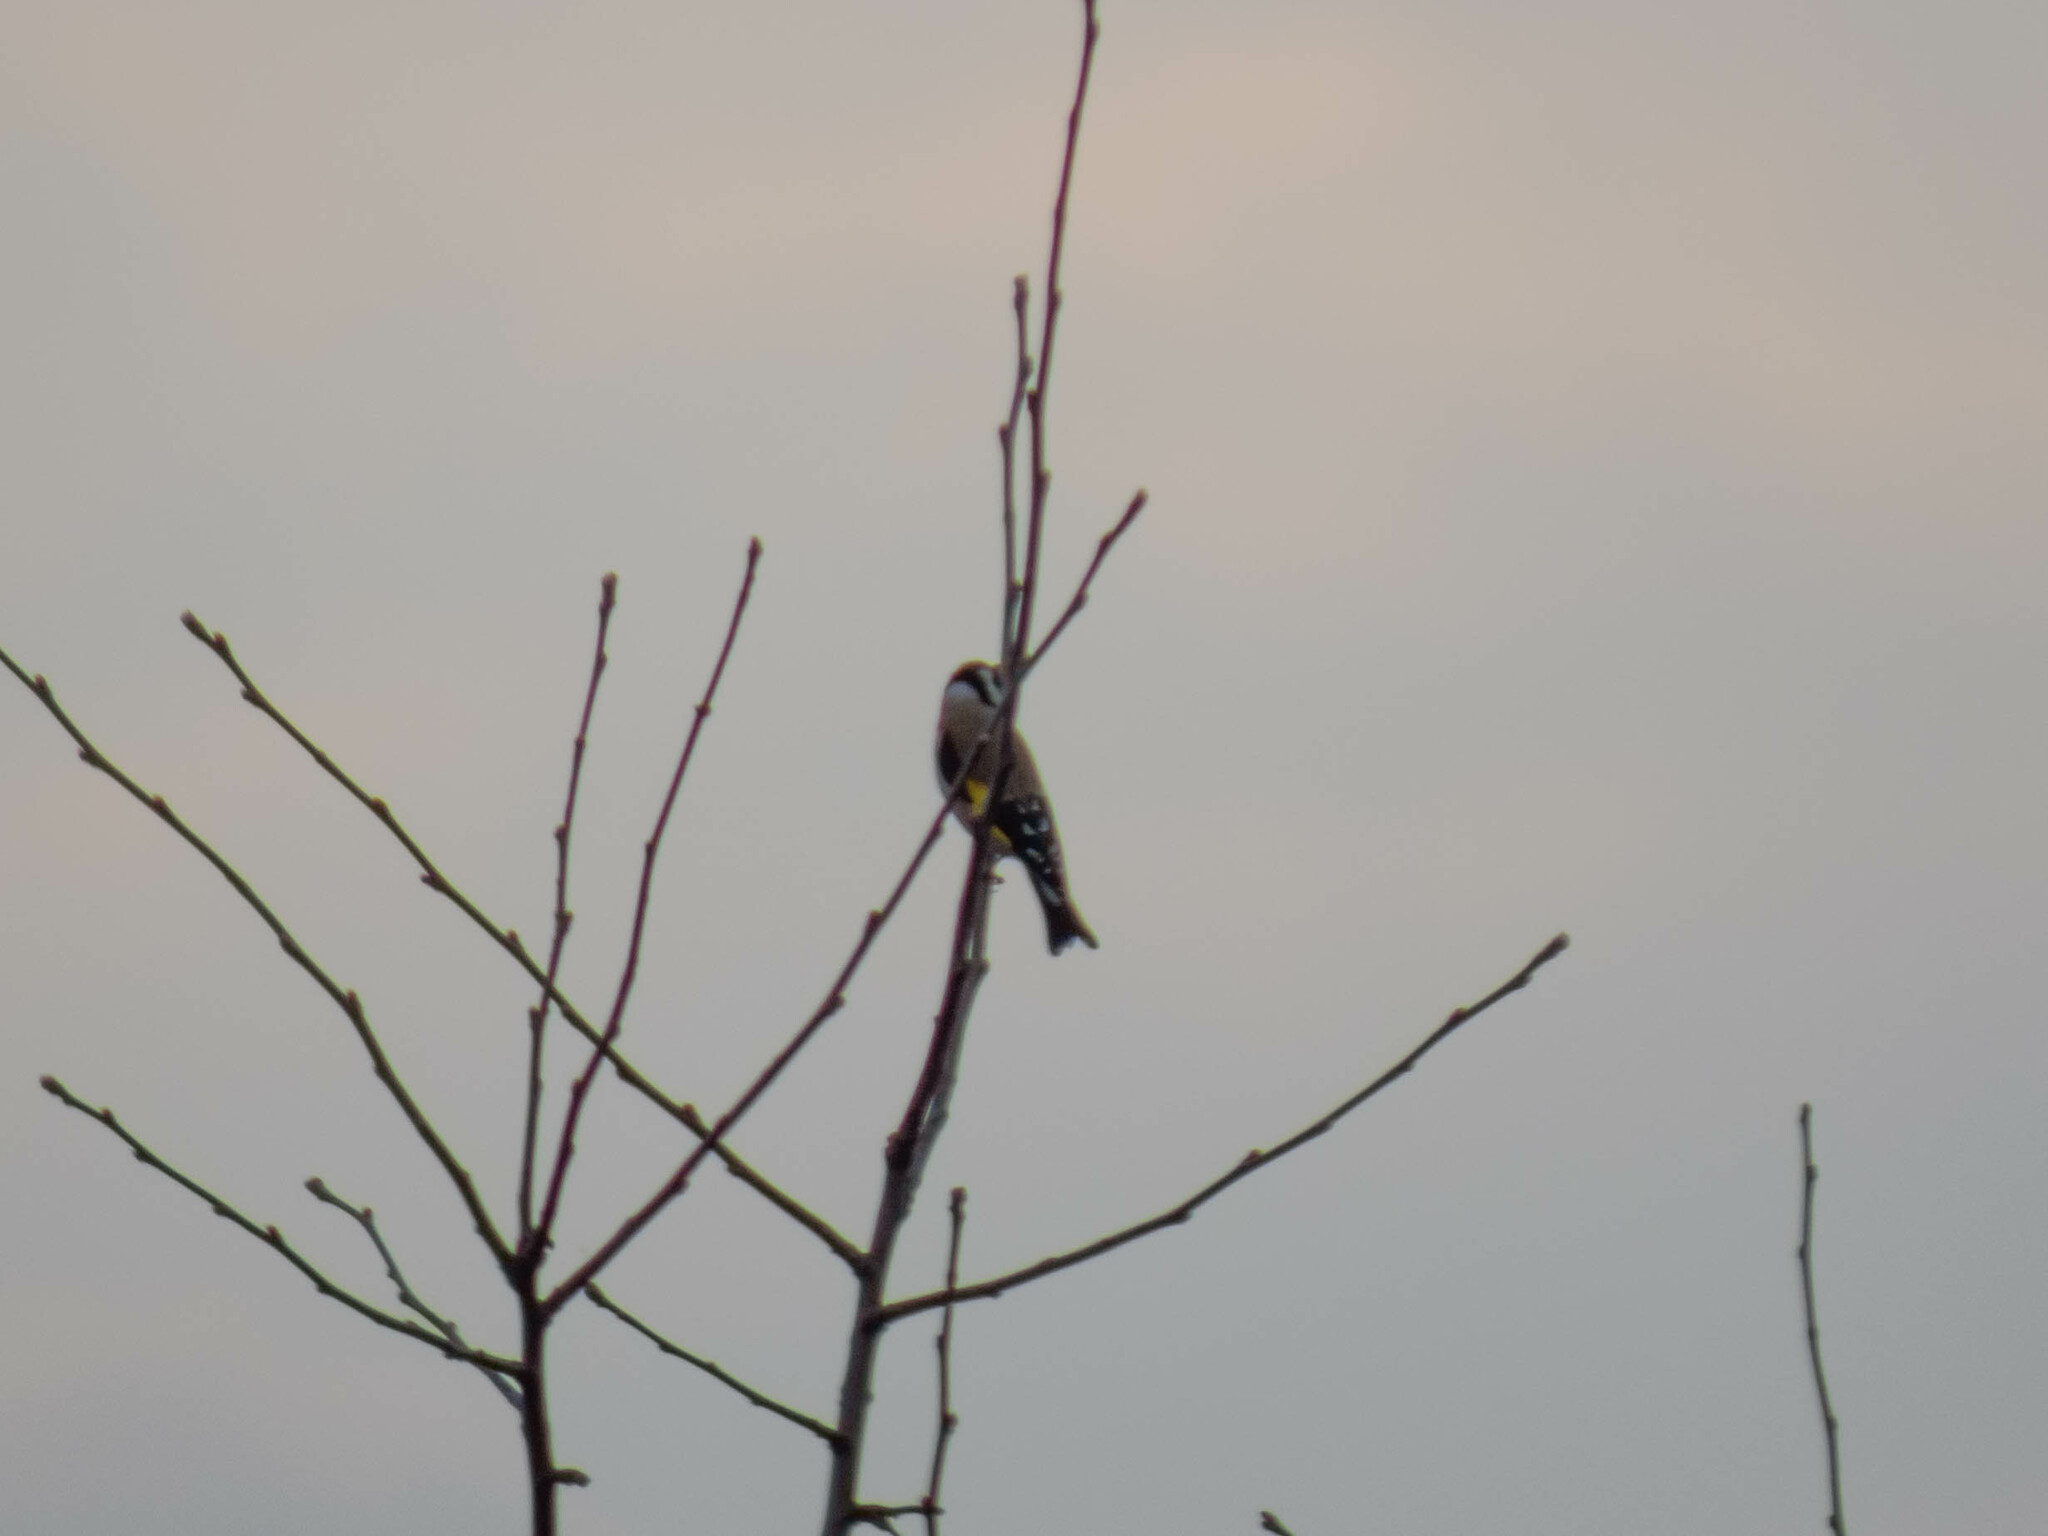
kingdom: Animalia
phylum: Chordata
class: Aves
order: Passeriformes
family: Fringillidae
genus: Carduelis
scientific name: Carduelis carduelis
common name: European goldfinch
